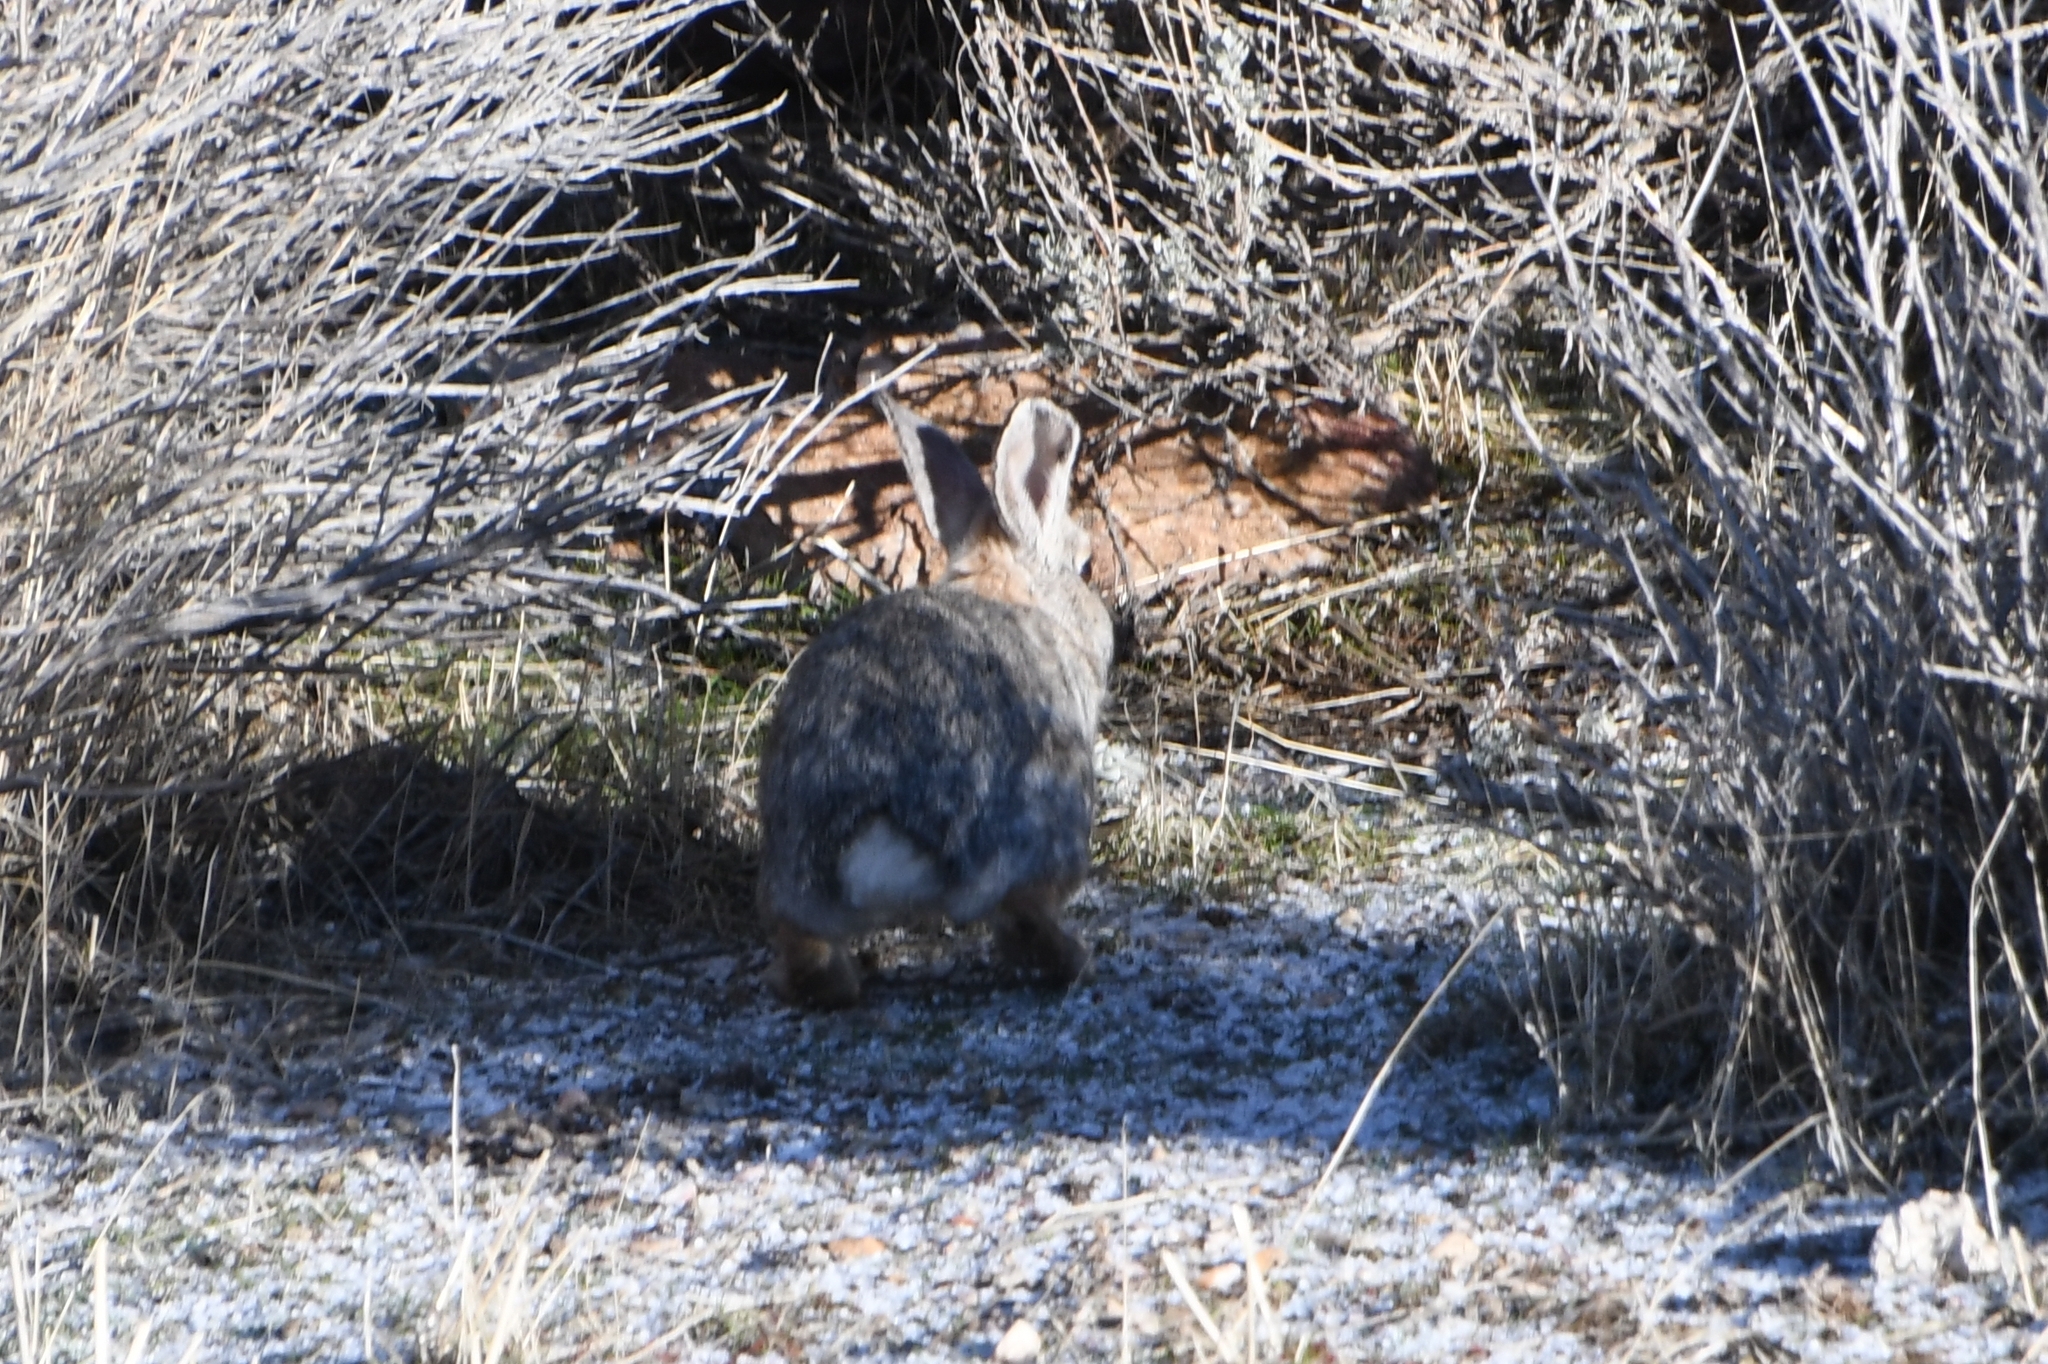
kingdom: Animalia
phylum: Chordata
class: Mammalia
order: Lagomorpha
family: Leporidae
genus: Sylvilagus
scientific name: Sylvilagus nuttallii
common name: Mountain cottontail
